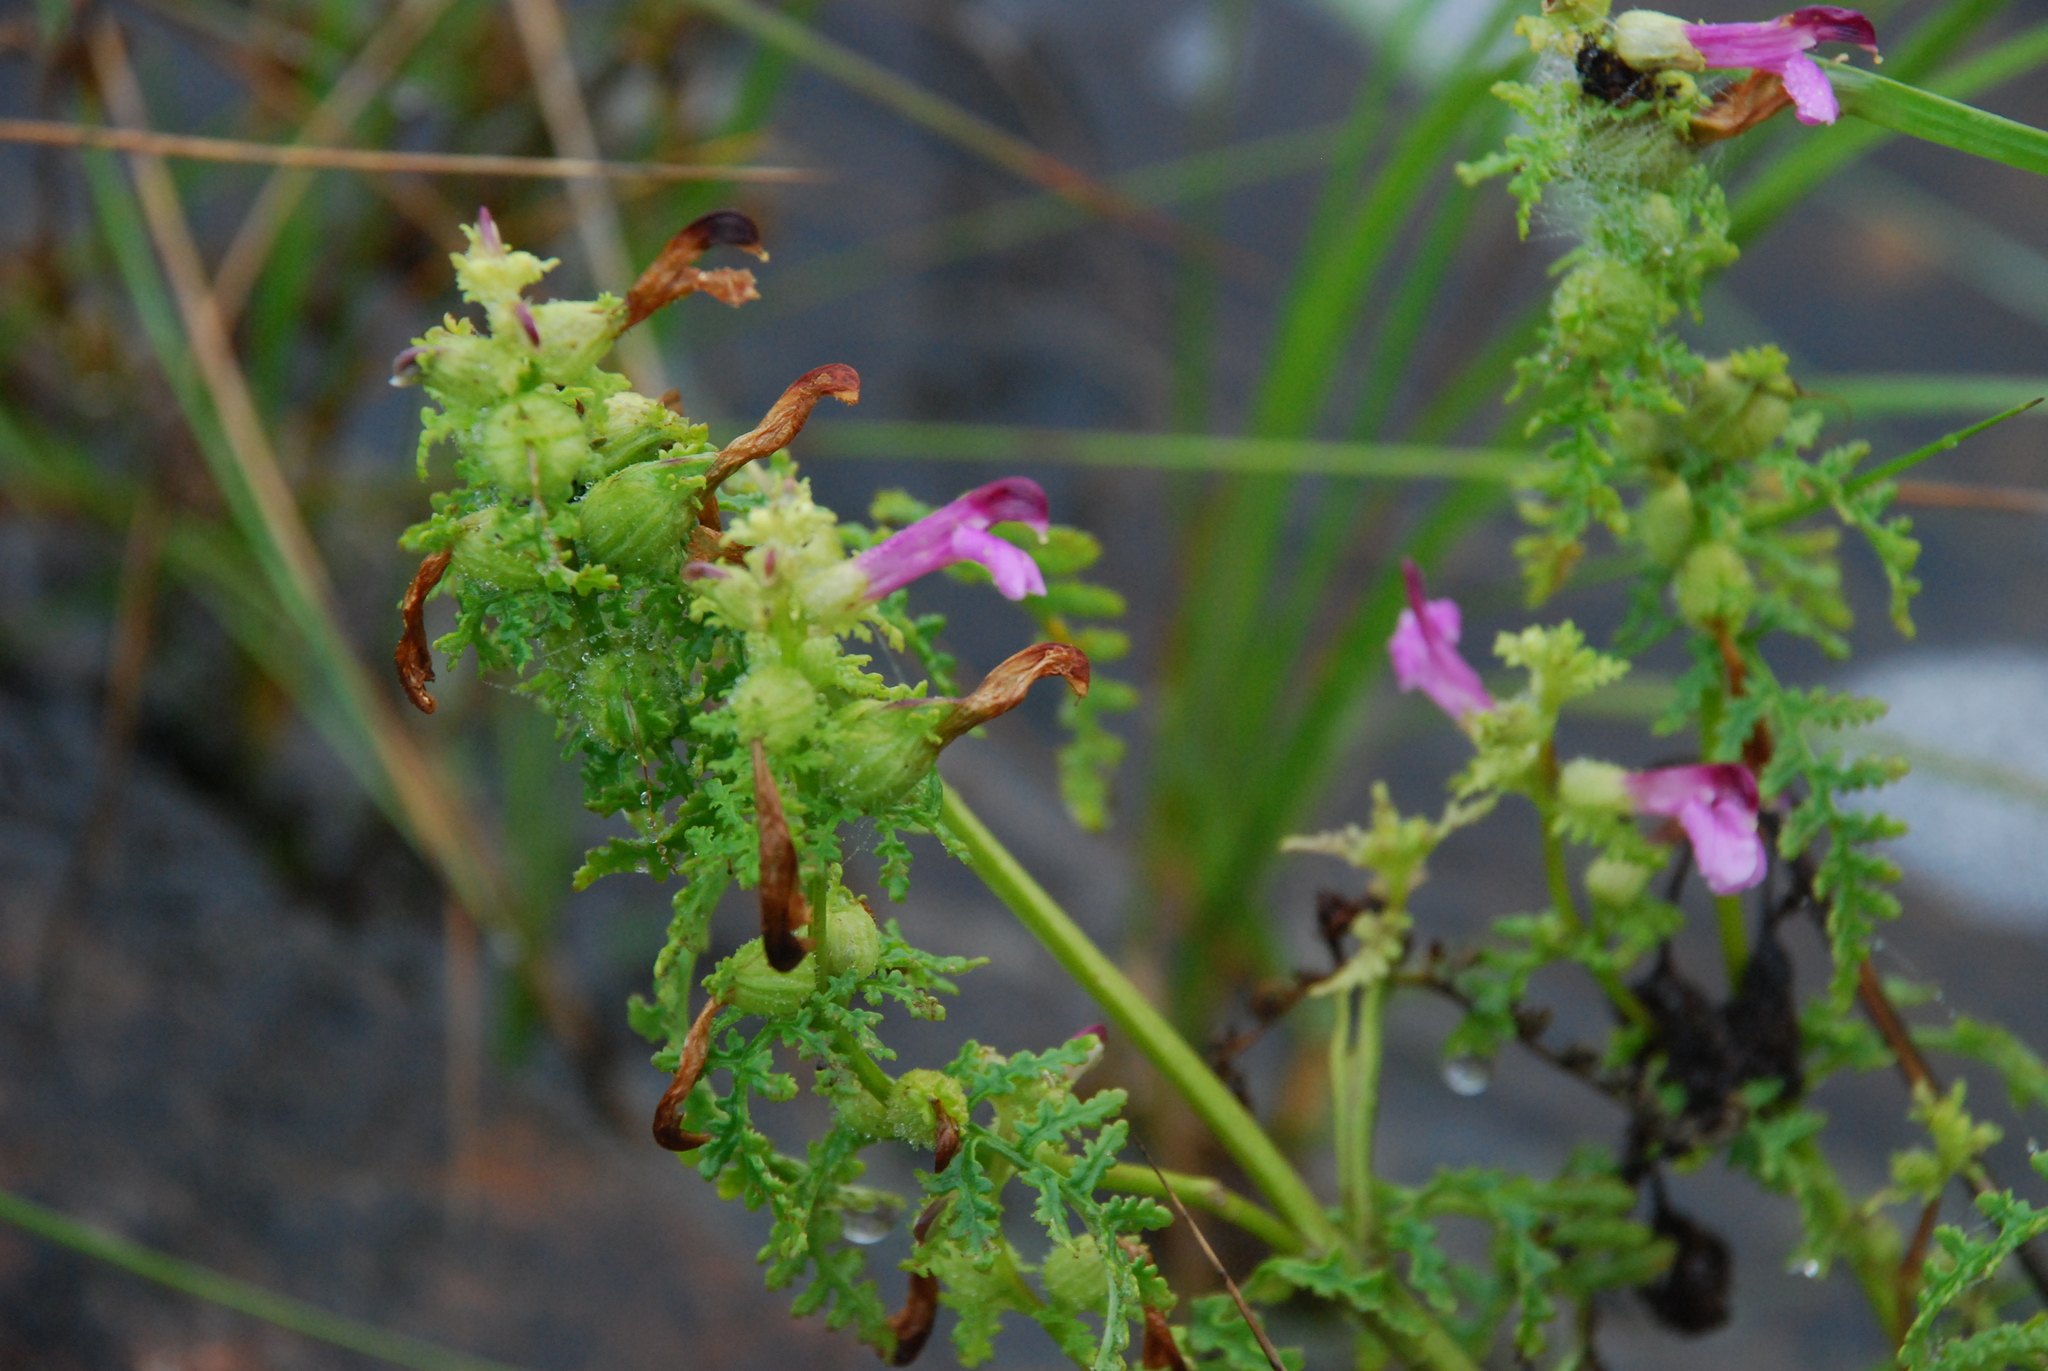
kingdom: Plantae
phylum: Tracheophyta
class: Magnoliopsida
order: Lamiales
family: Orobanchaceae
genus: Pedicularis
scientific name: Pedicularis palustris
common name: Marsh lousewort
